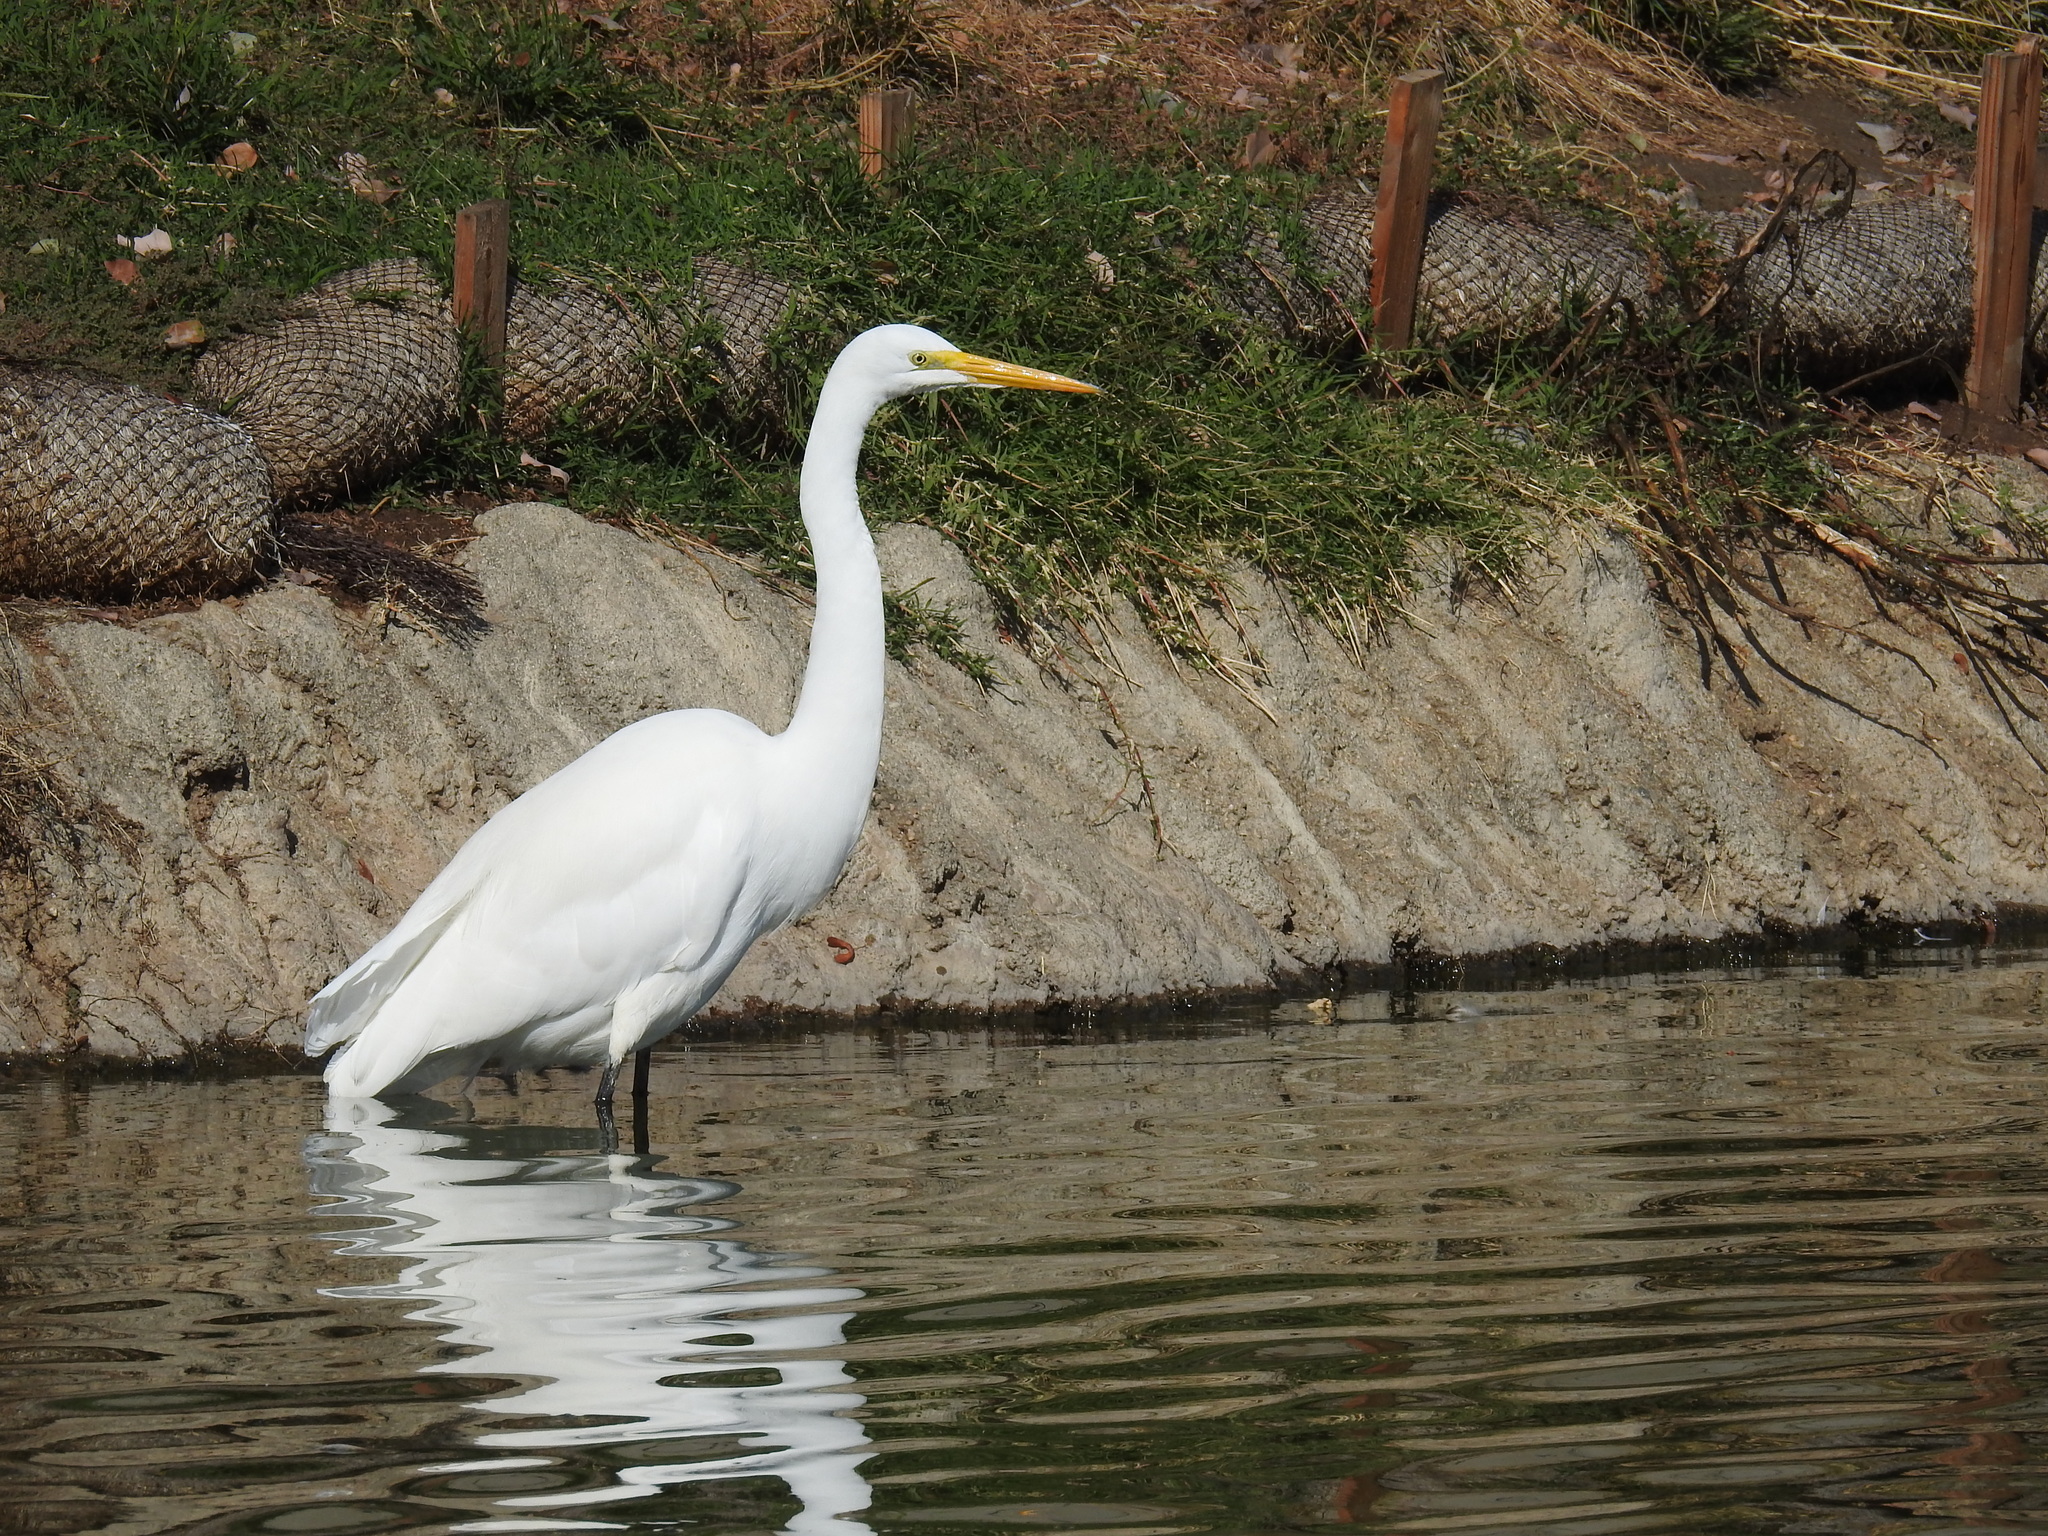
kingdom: Animalia
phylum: Chordata
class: Aves
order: Pelecaniformes
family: Ardeidae
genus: Ardea
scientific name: Ardea alba
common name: Great egret
